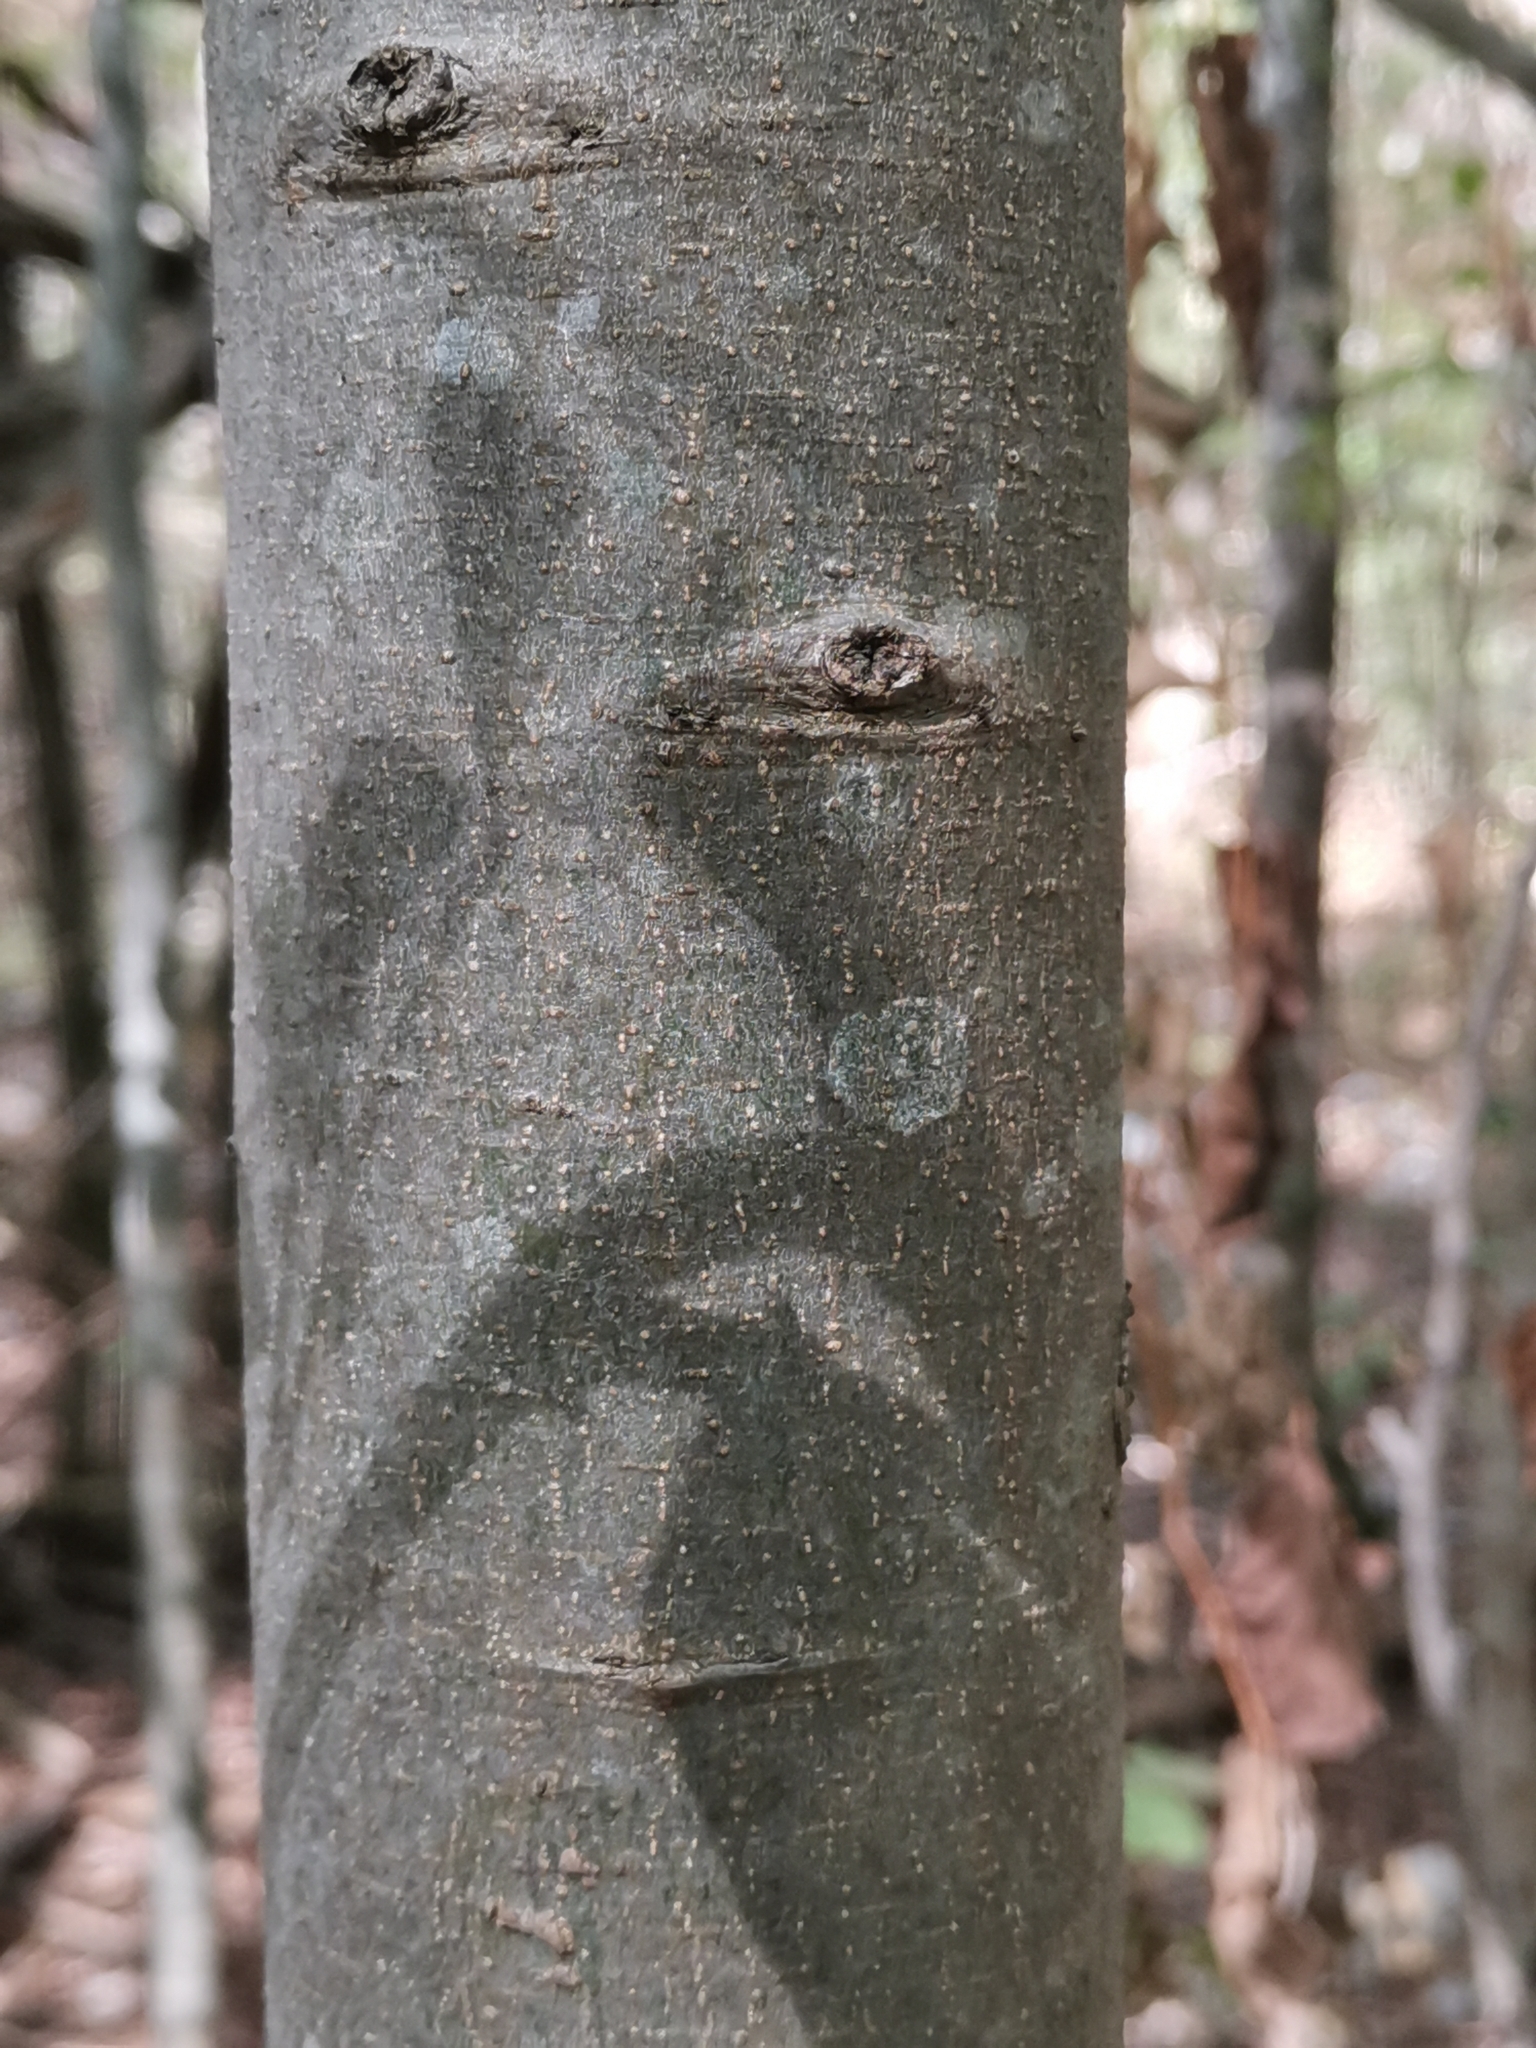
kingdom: Plantae
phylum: Tracheophyta
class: Magnoliopsida
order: Rosales
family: Cannabaceae
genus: Celtis
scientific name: Celtis australis
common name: European hackberry
